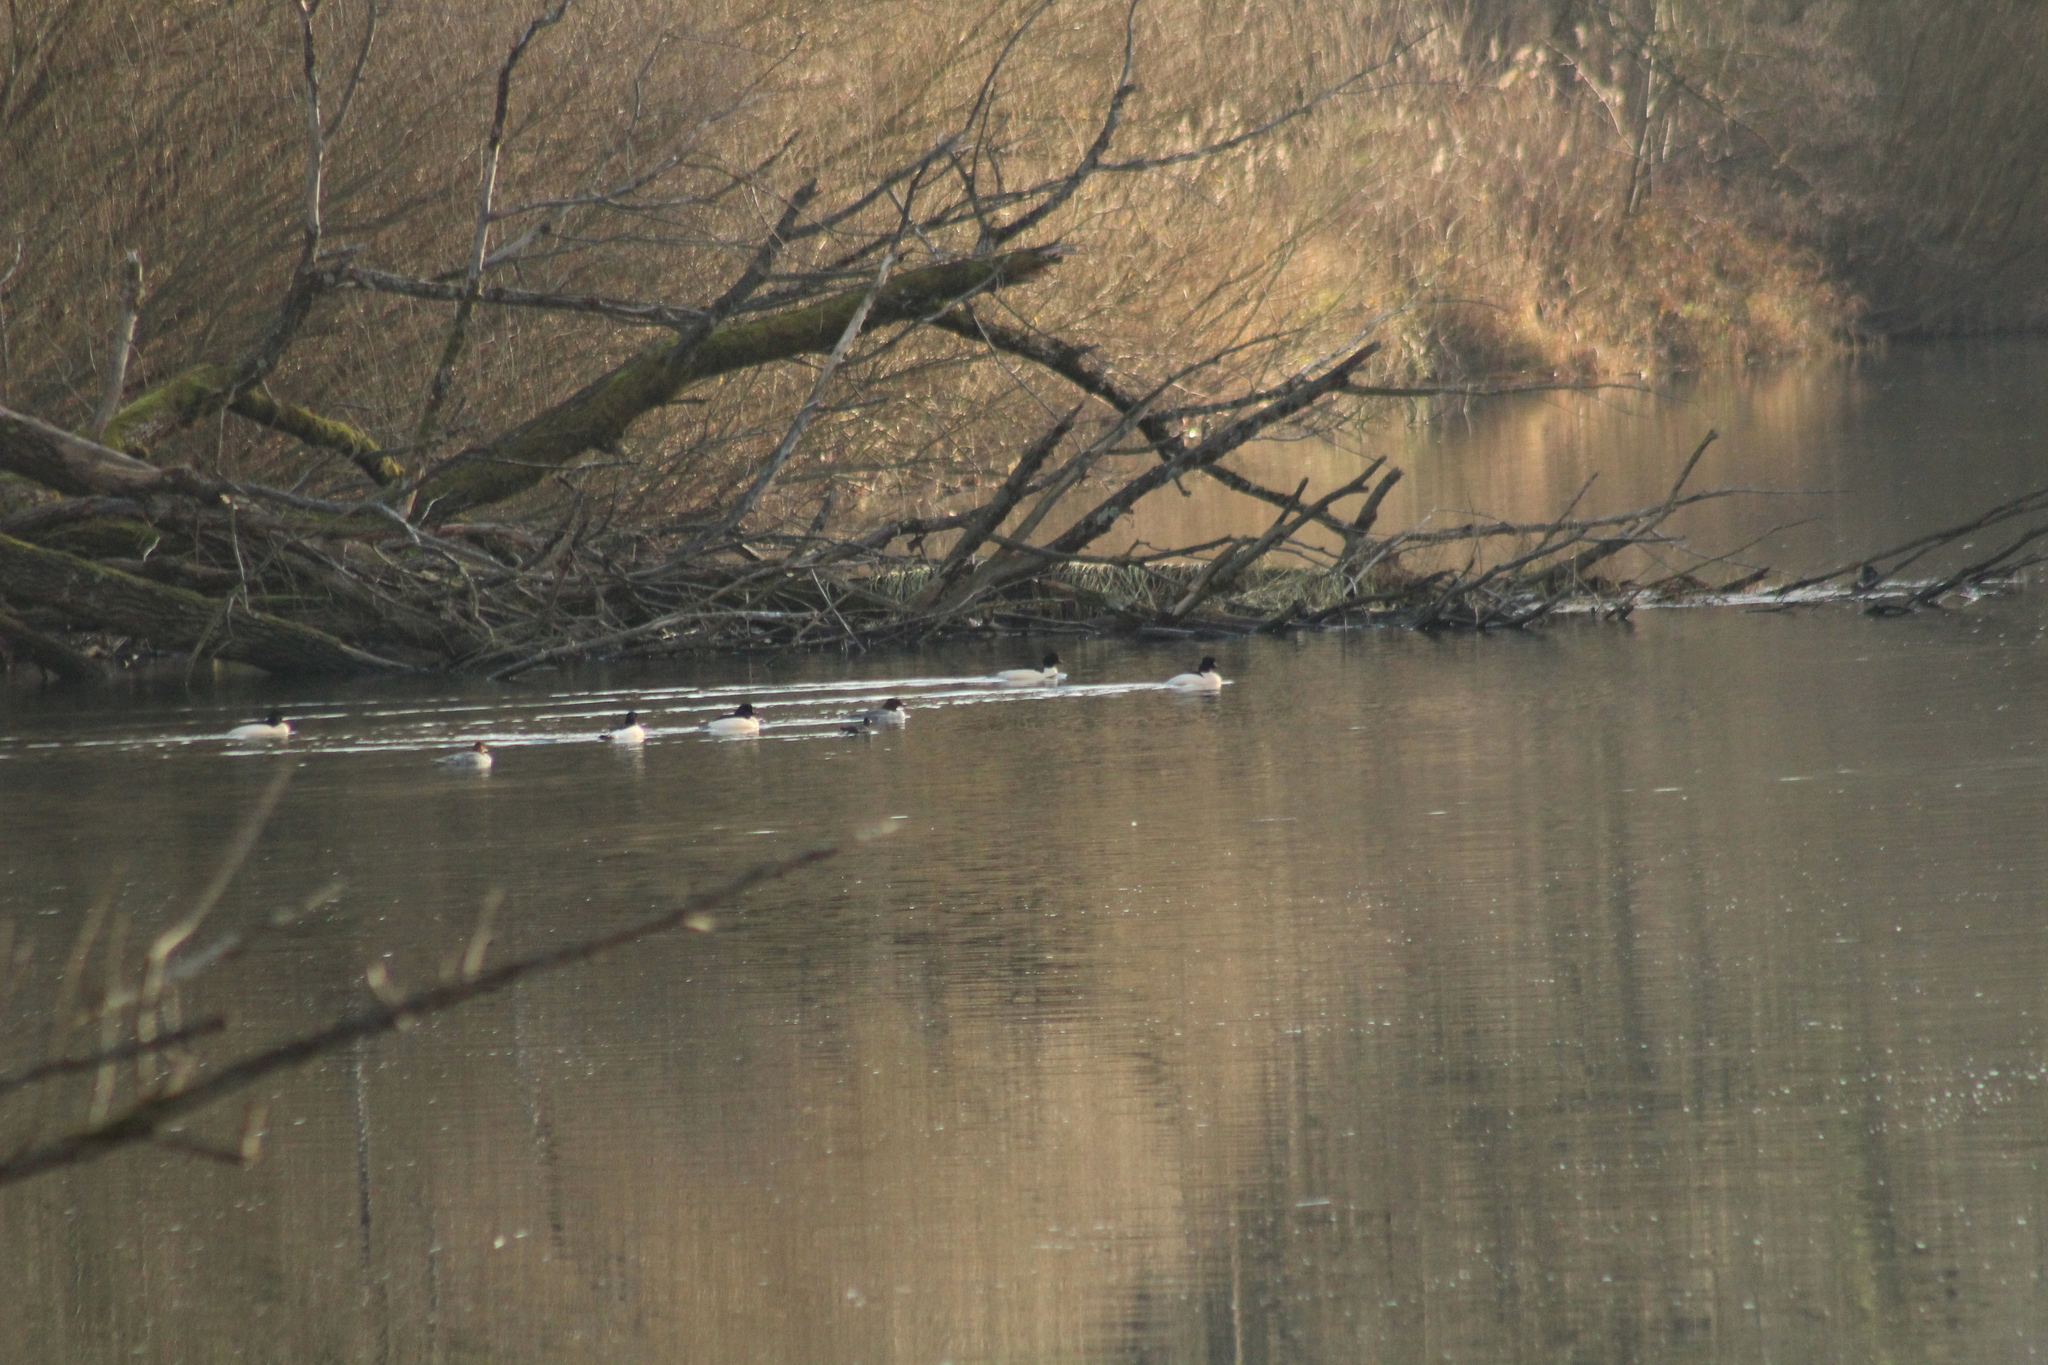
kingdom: Animalia
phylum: Chordata
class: Aves
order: Anseriformes
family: Anatidae
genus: Mergus
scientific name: Mergus merganser
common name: Common merganser
